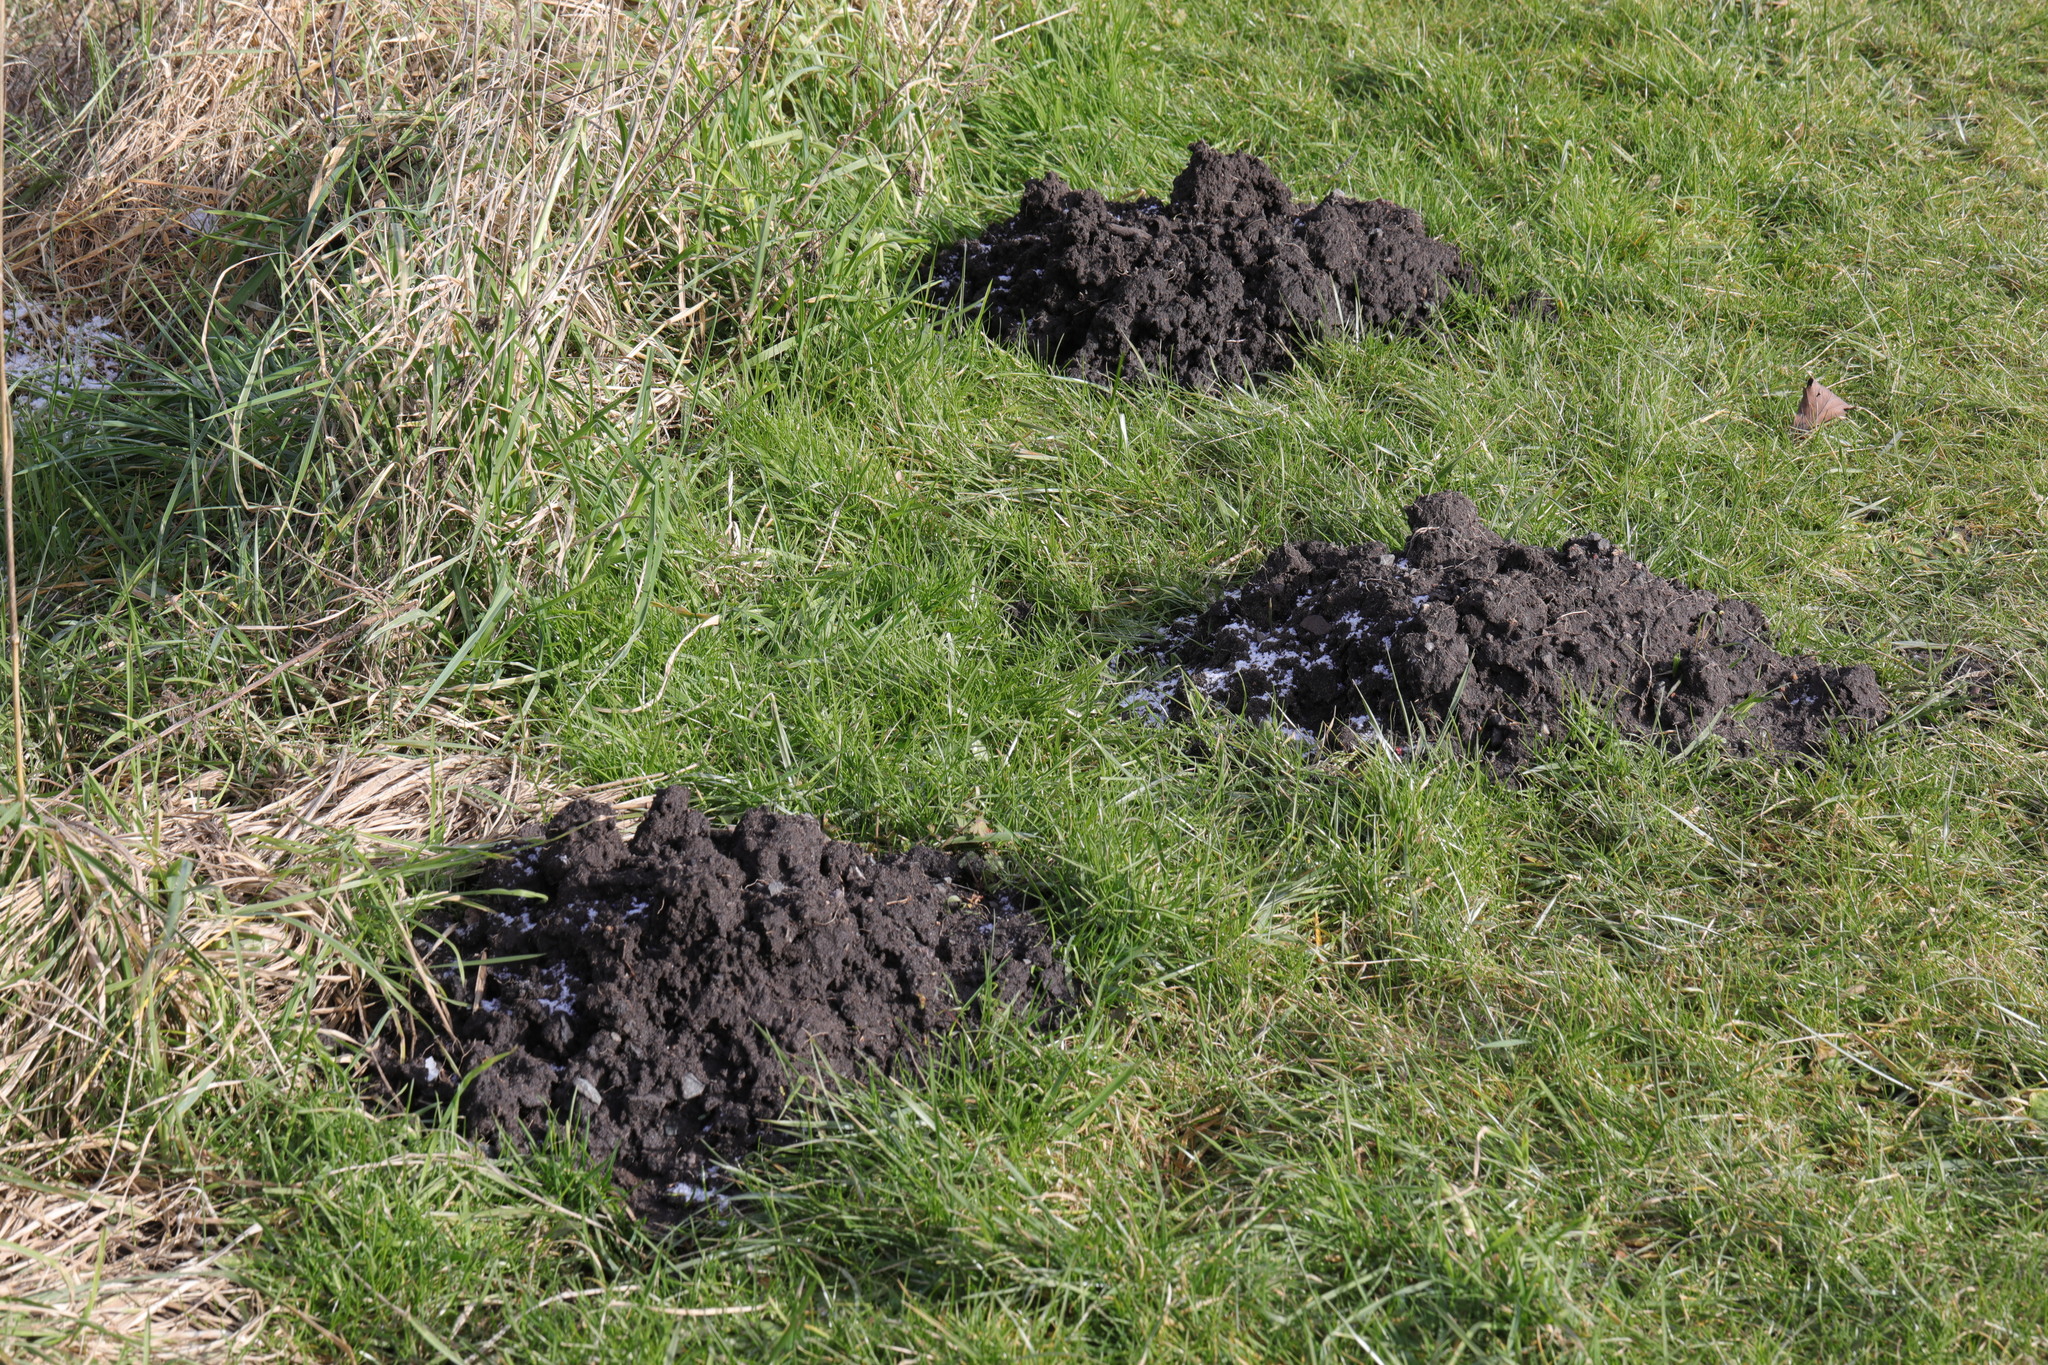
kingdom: Animalia
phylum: Chordata
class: Mammalia
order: Soricomorpha
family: Talpidae
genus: Talpa
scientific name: Talpa europaea
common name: European mole
